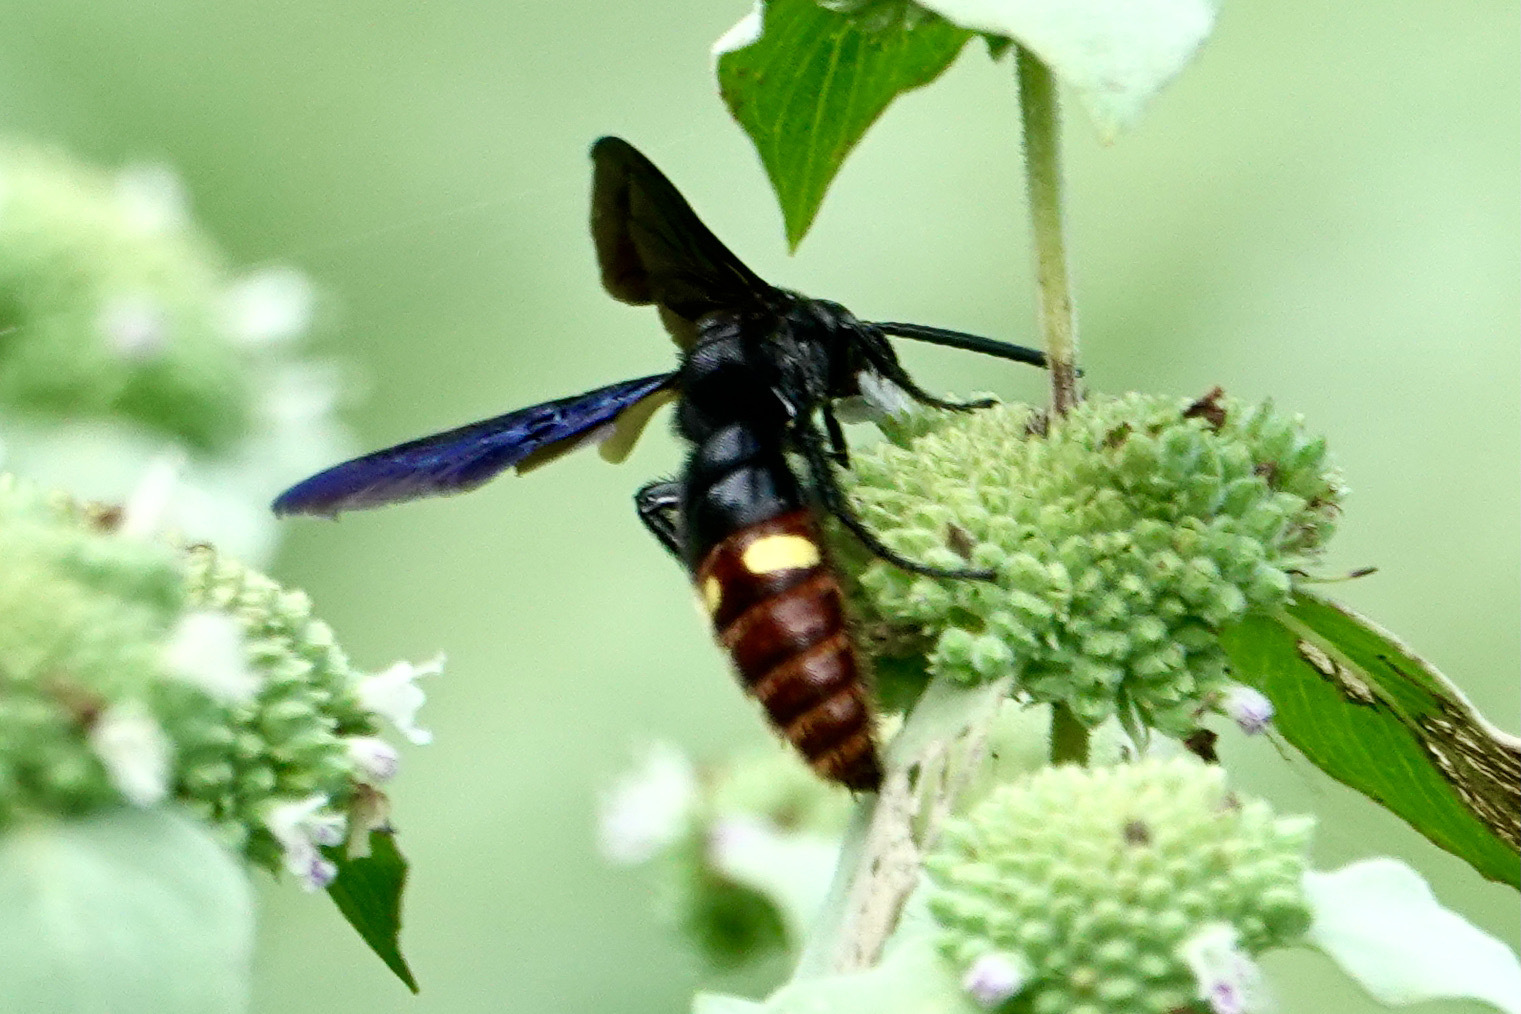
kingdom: Animalia
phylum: Arthropoda
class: Insecta
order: Hymenoptera
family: Scoliidae
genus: Scolia
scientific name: Scolia dubia
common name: Blue-winged scoliid wasp
